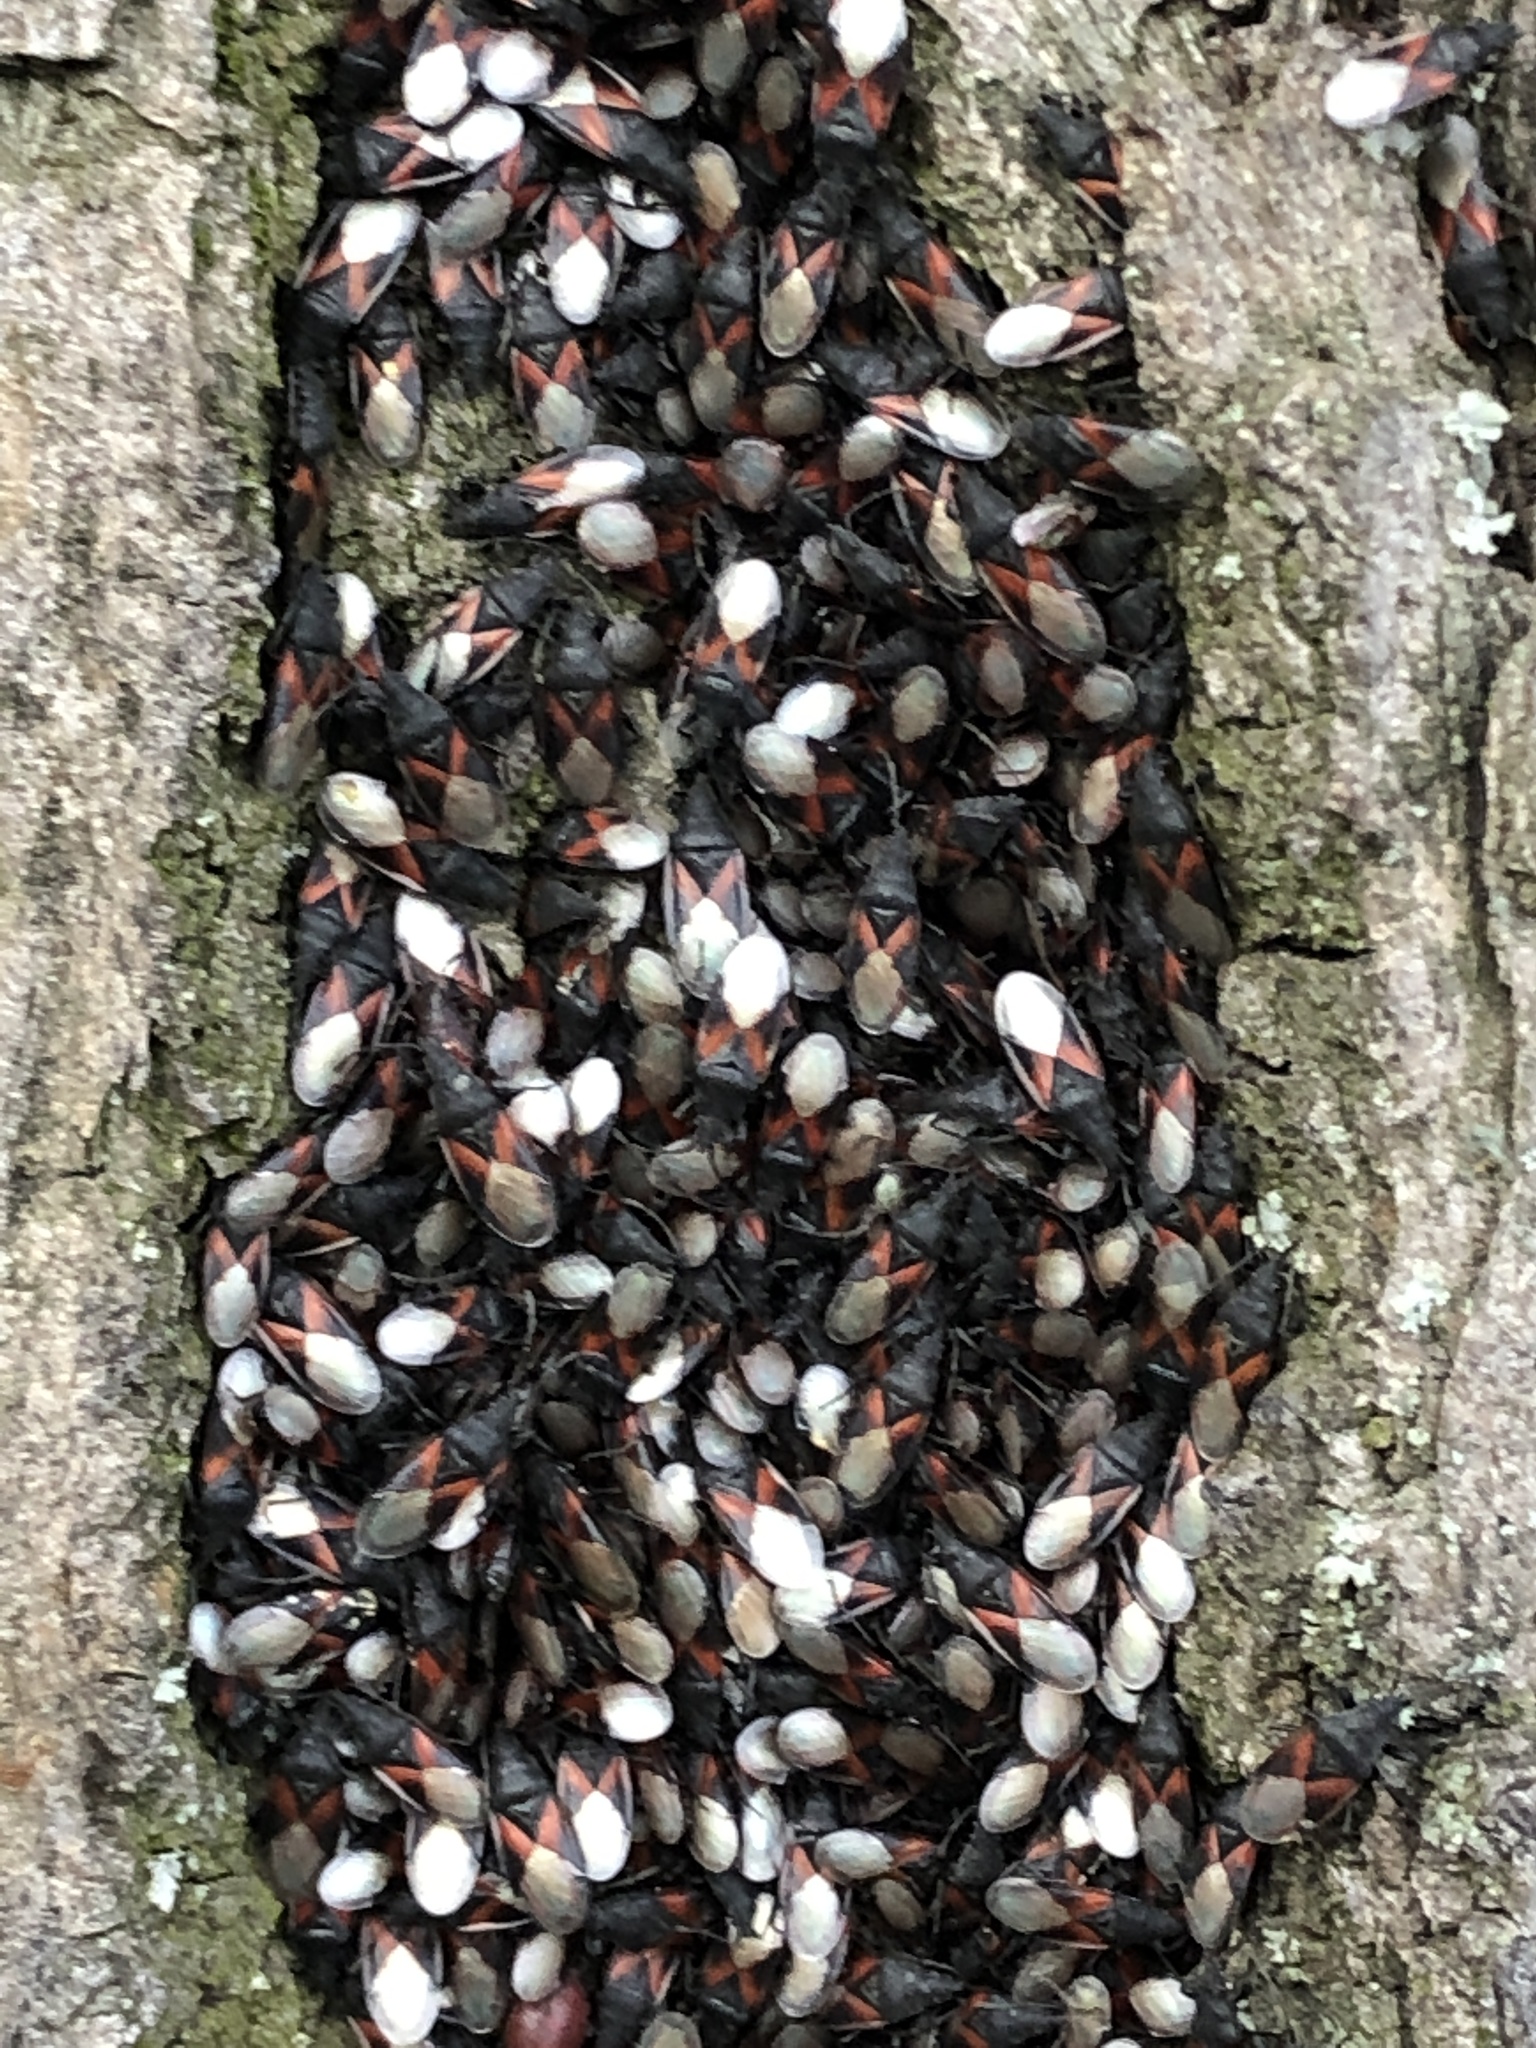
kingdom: Animalia
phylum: Arthropoda
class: Insecta
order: Hemiptera
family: Oxycarenidae
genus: Oxycarenus
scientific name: Oxycarenus lavaterae
